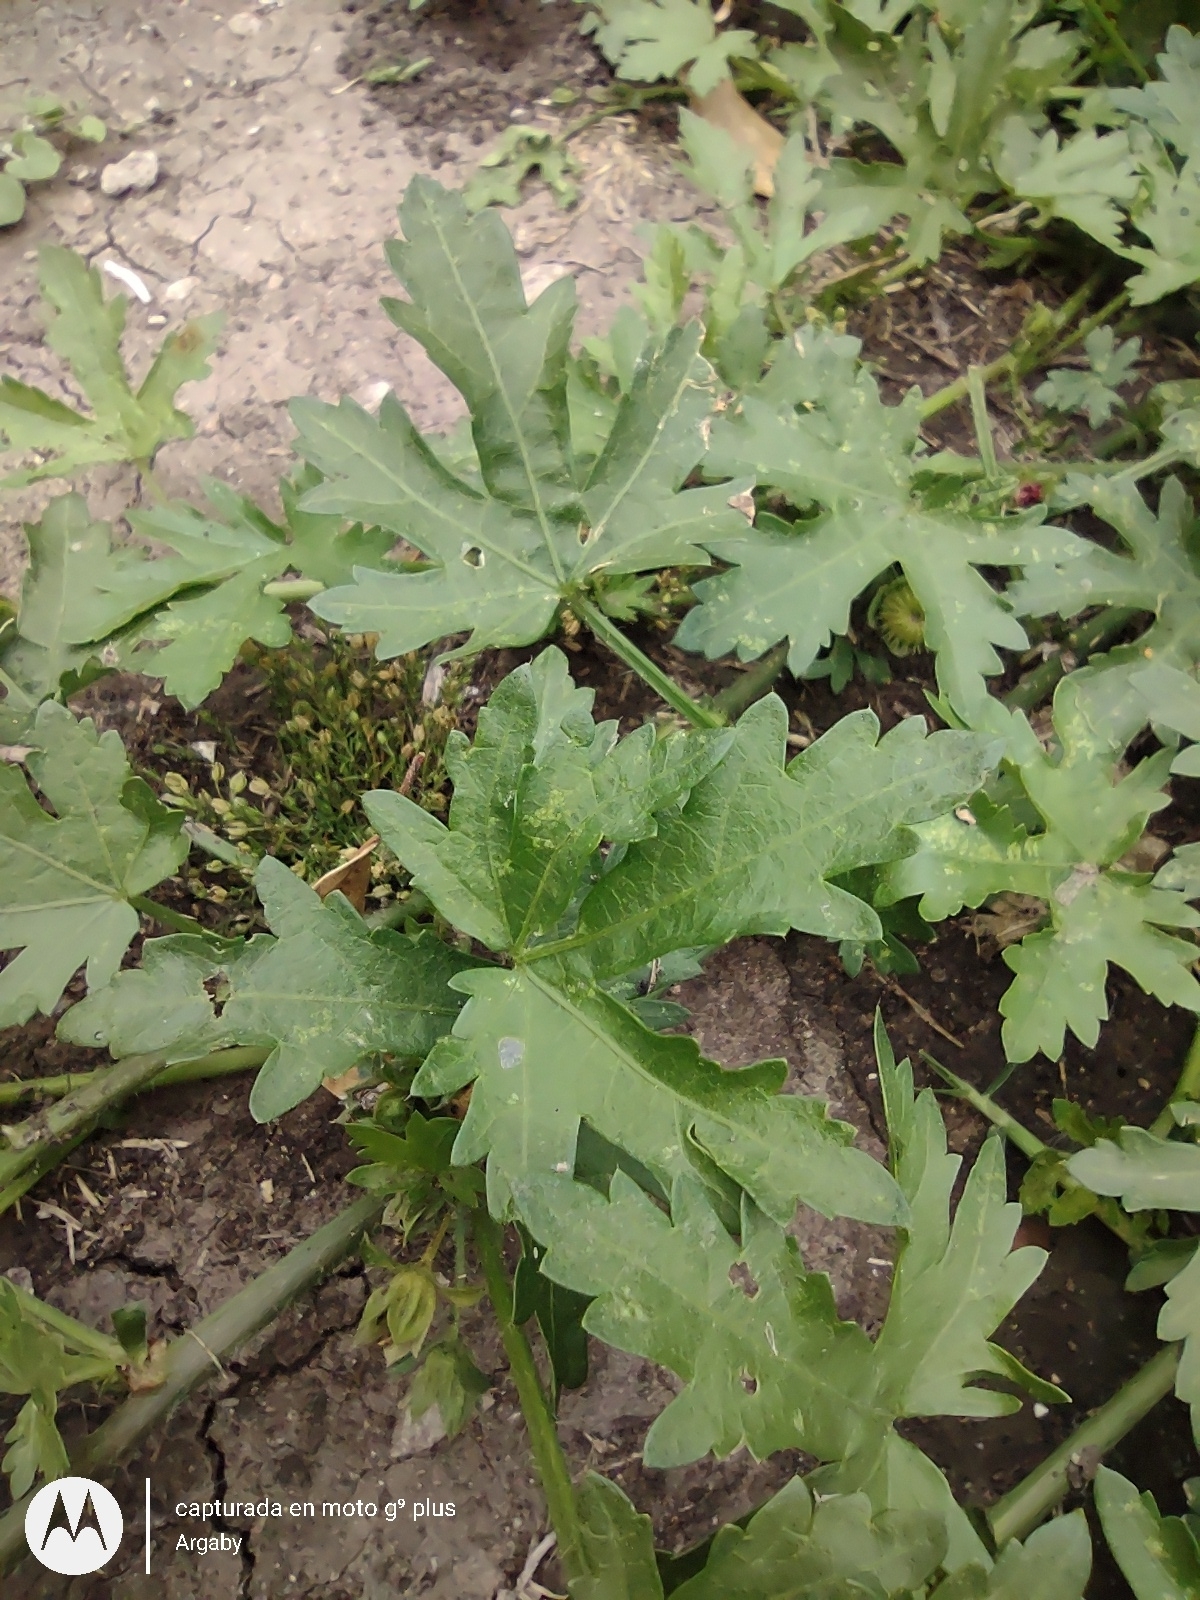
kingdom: Plantae
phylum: Tracheophyta
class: Magnoliopsida
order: Malvales
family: Malvaceae
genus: Modiola
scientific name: Modiola caroliniana
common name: Carolina bristlemallow
